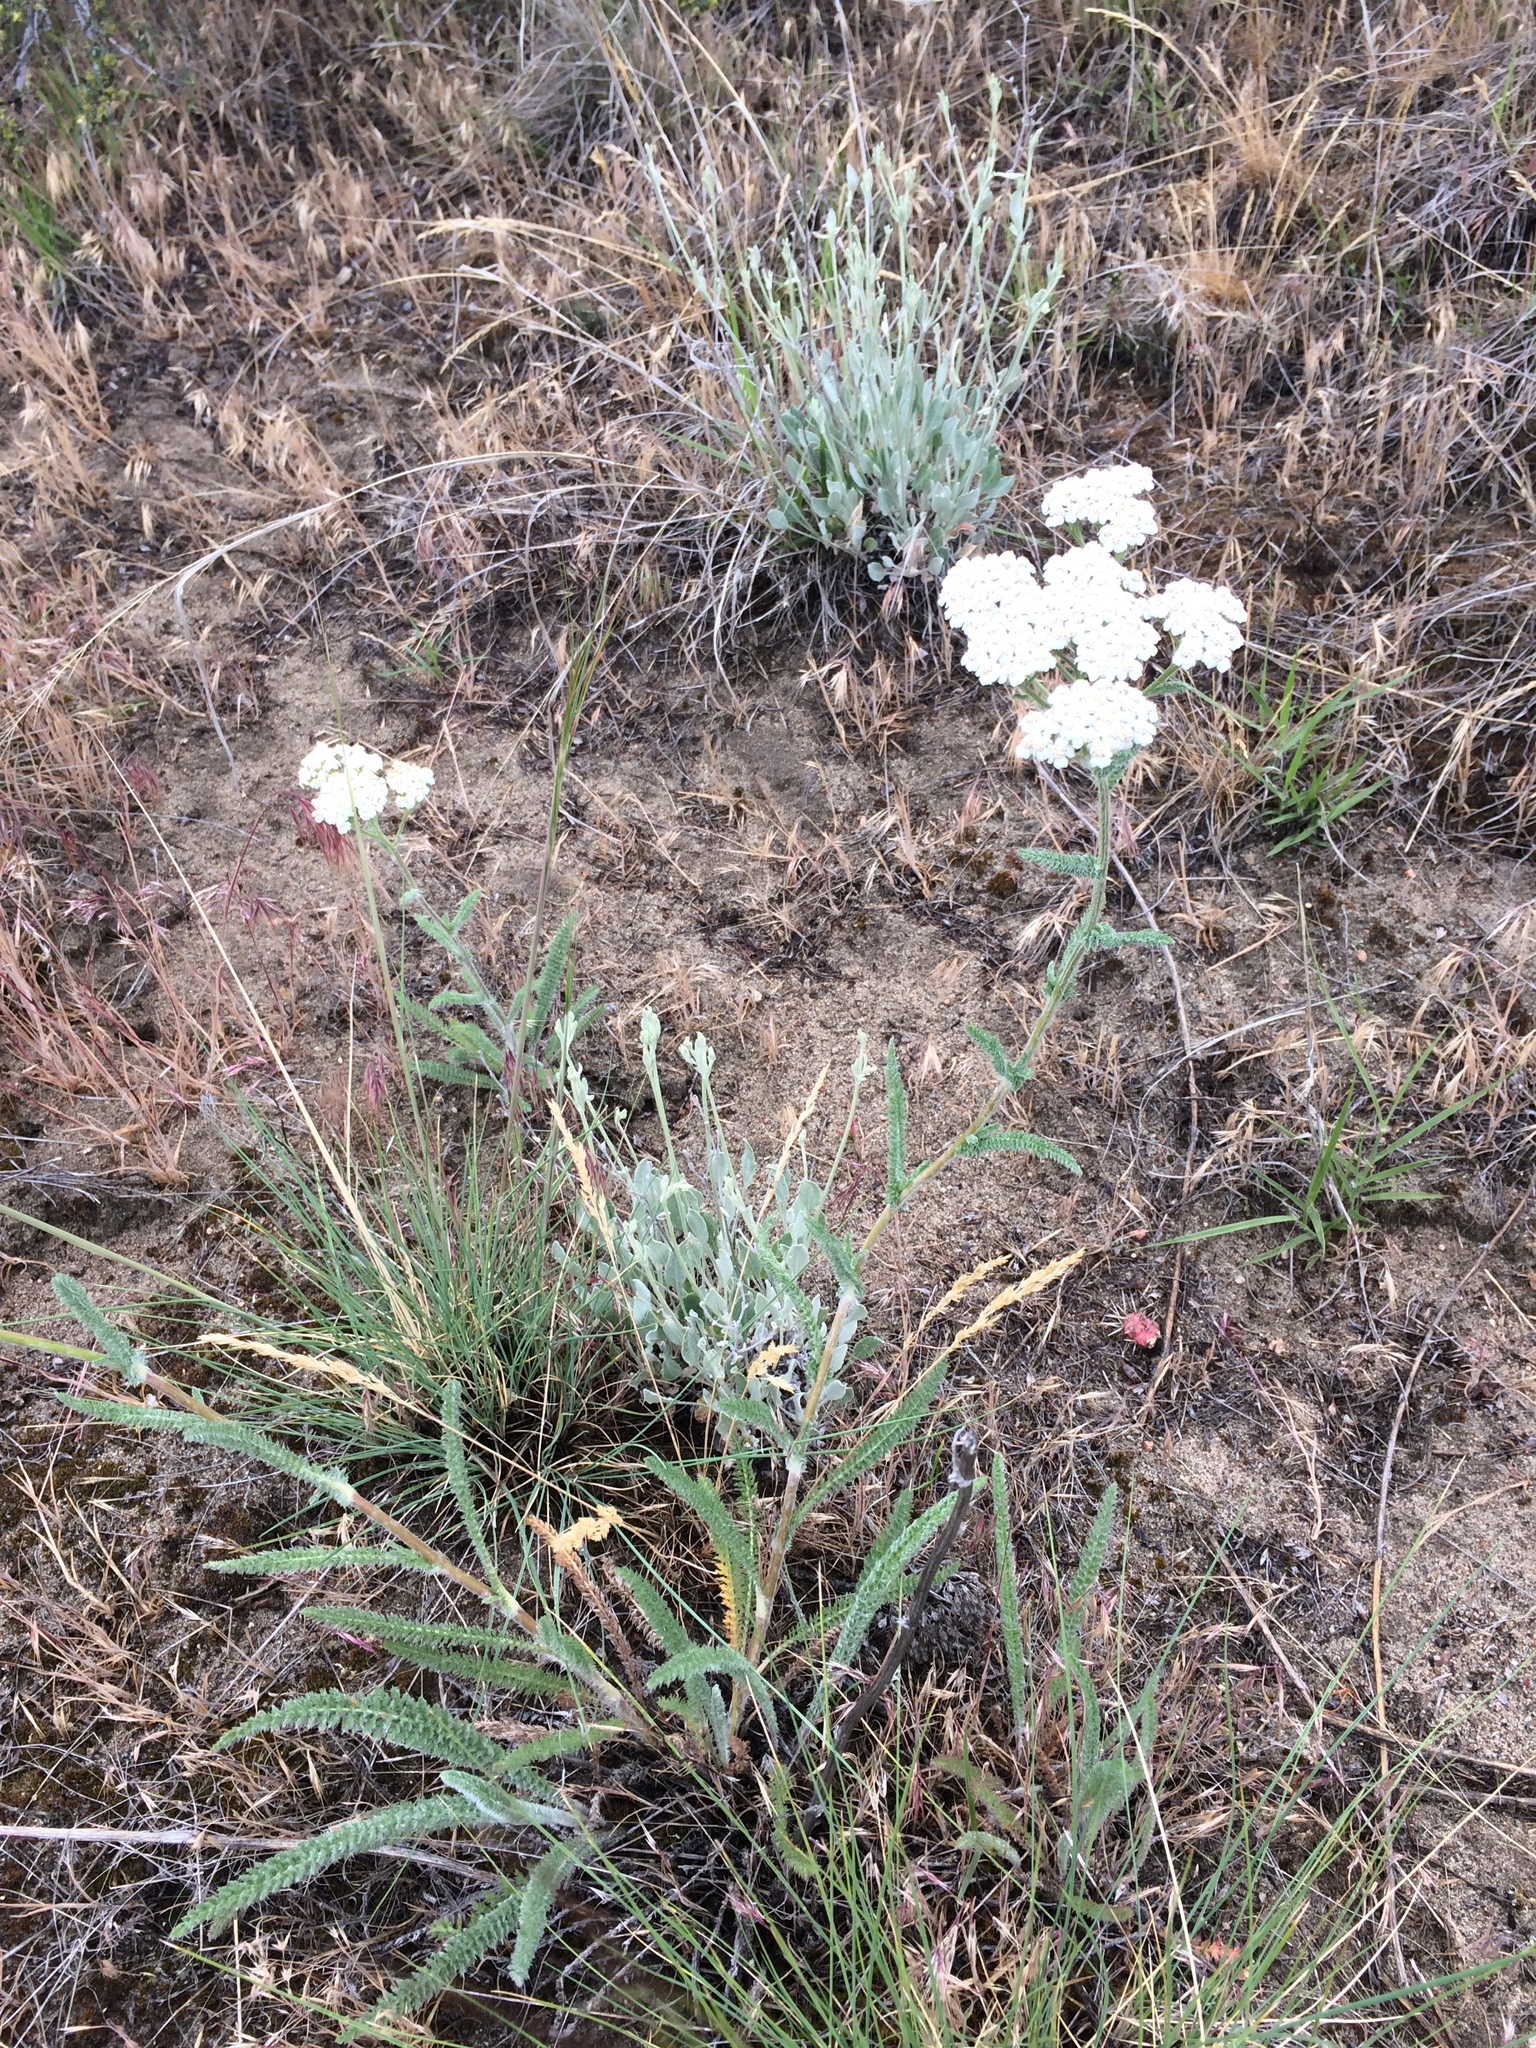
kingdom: Plantae
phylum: Tracheophyta
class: Magnoliopsida
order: Asterales
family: Asteraceae
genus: Achillea
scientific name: Achillea millefolium
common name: Yarrow
